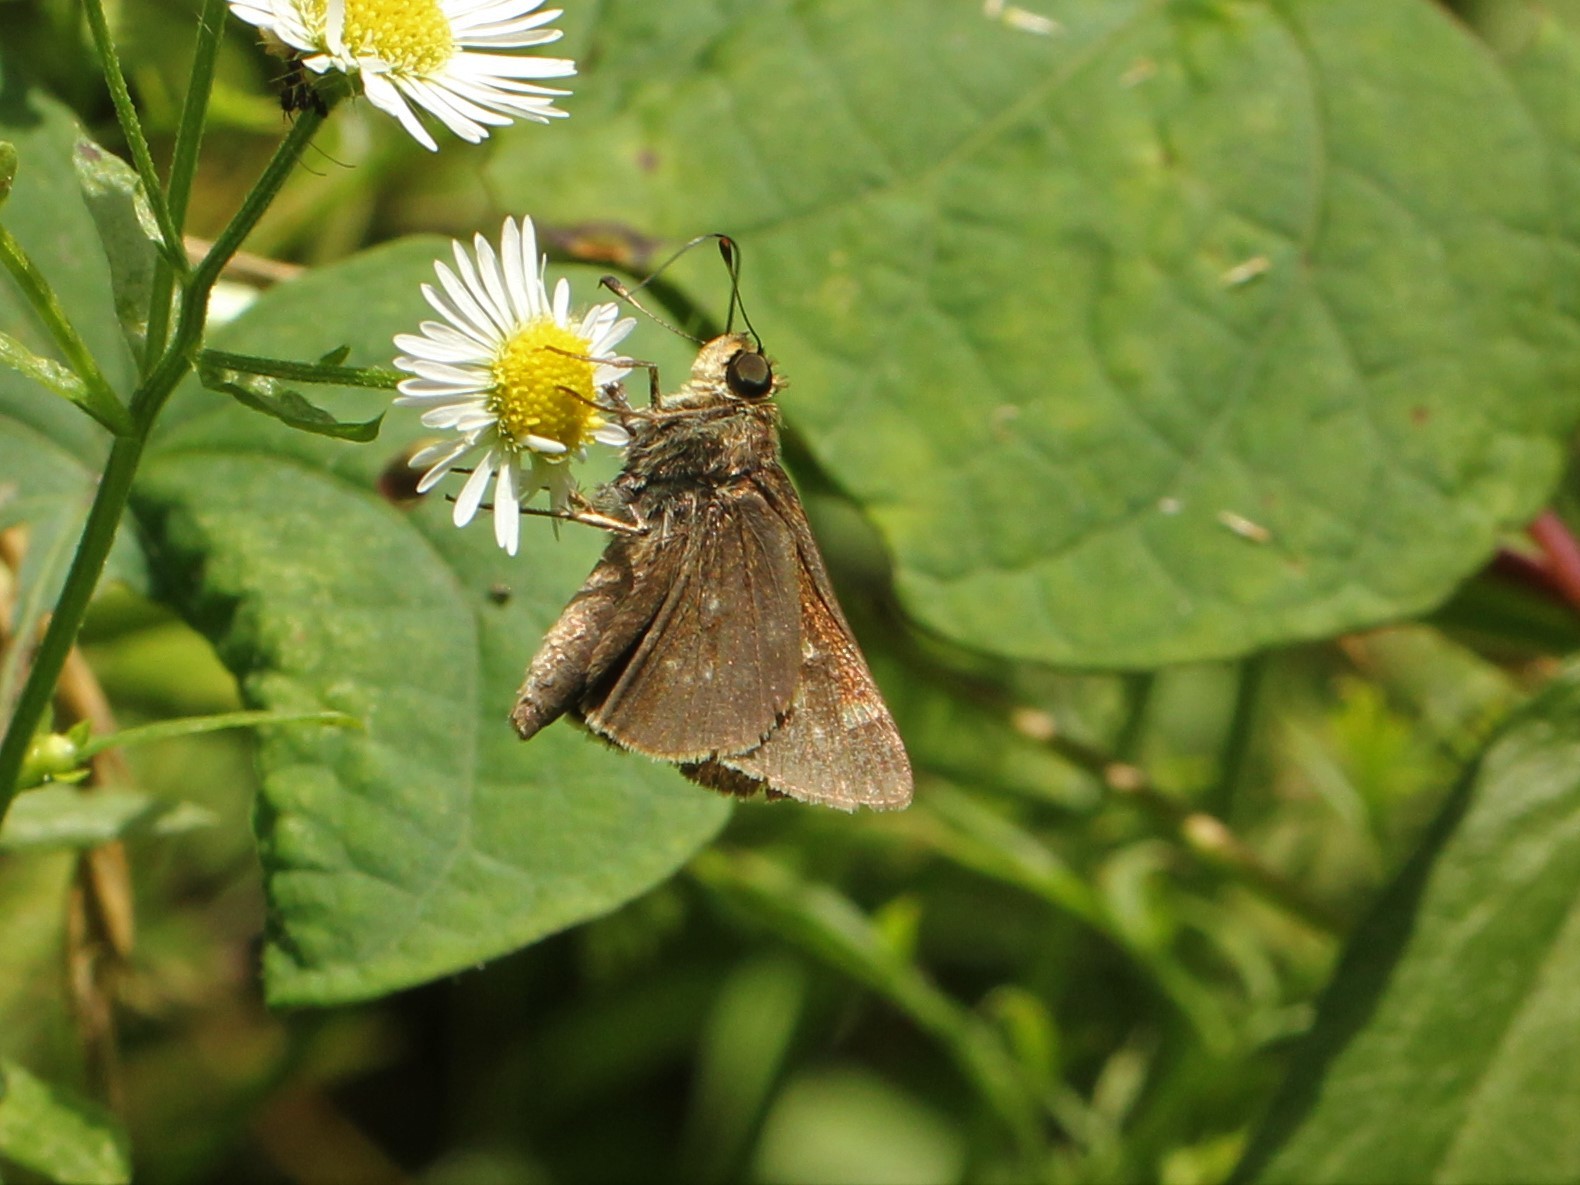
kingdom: Animalia
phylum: Arthropoda
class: Insecta
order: Lepidoptera
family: Hesperiidae
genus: Vernia
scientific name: Vernia verna
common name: Little glassywing
